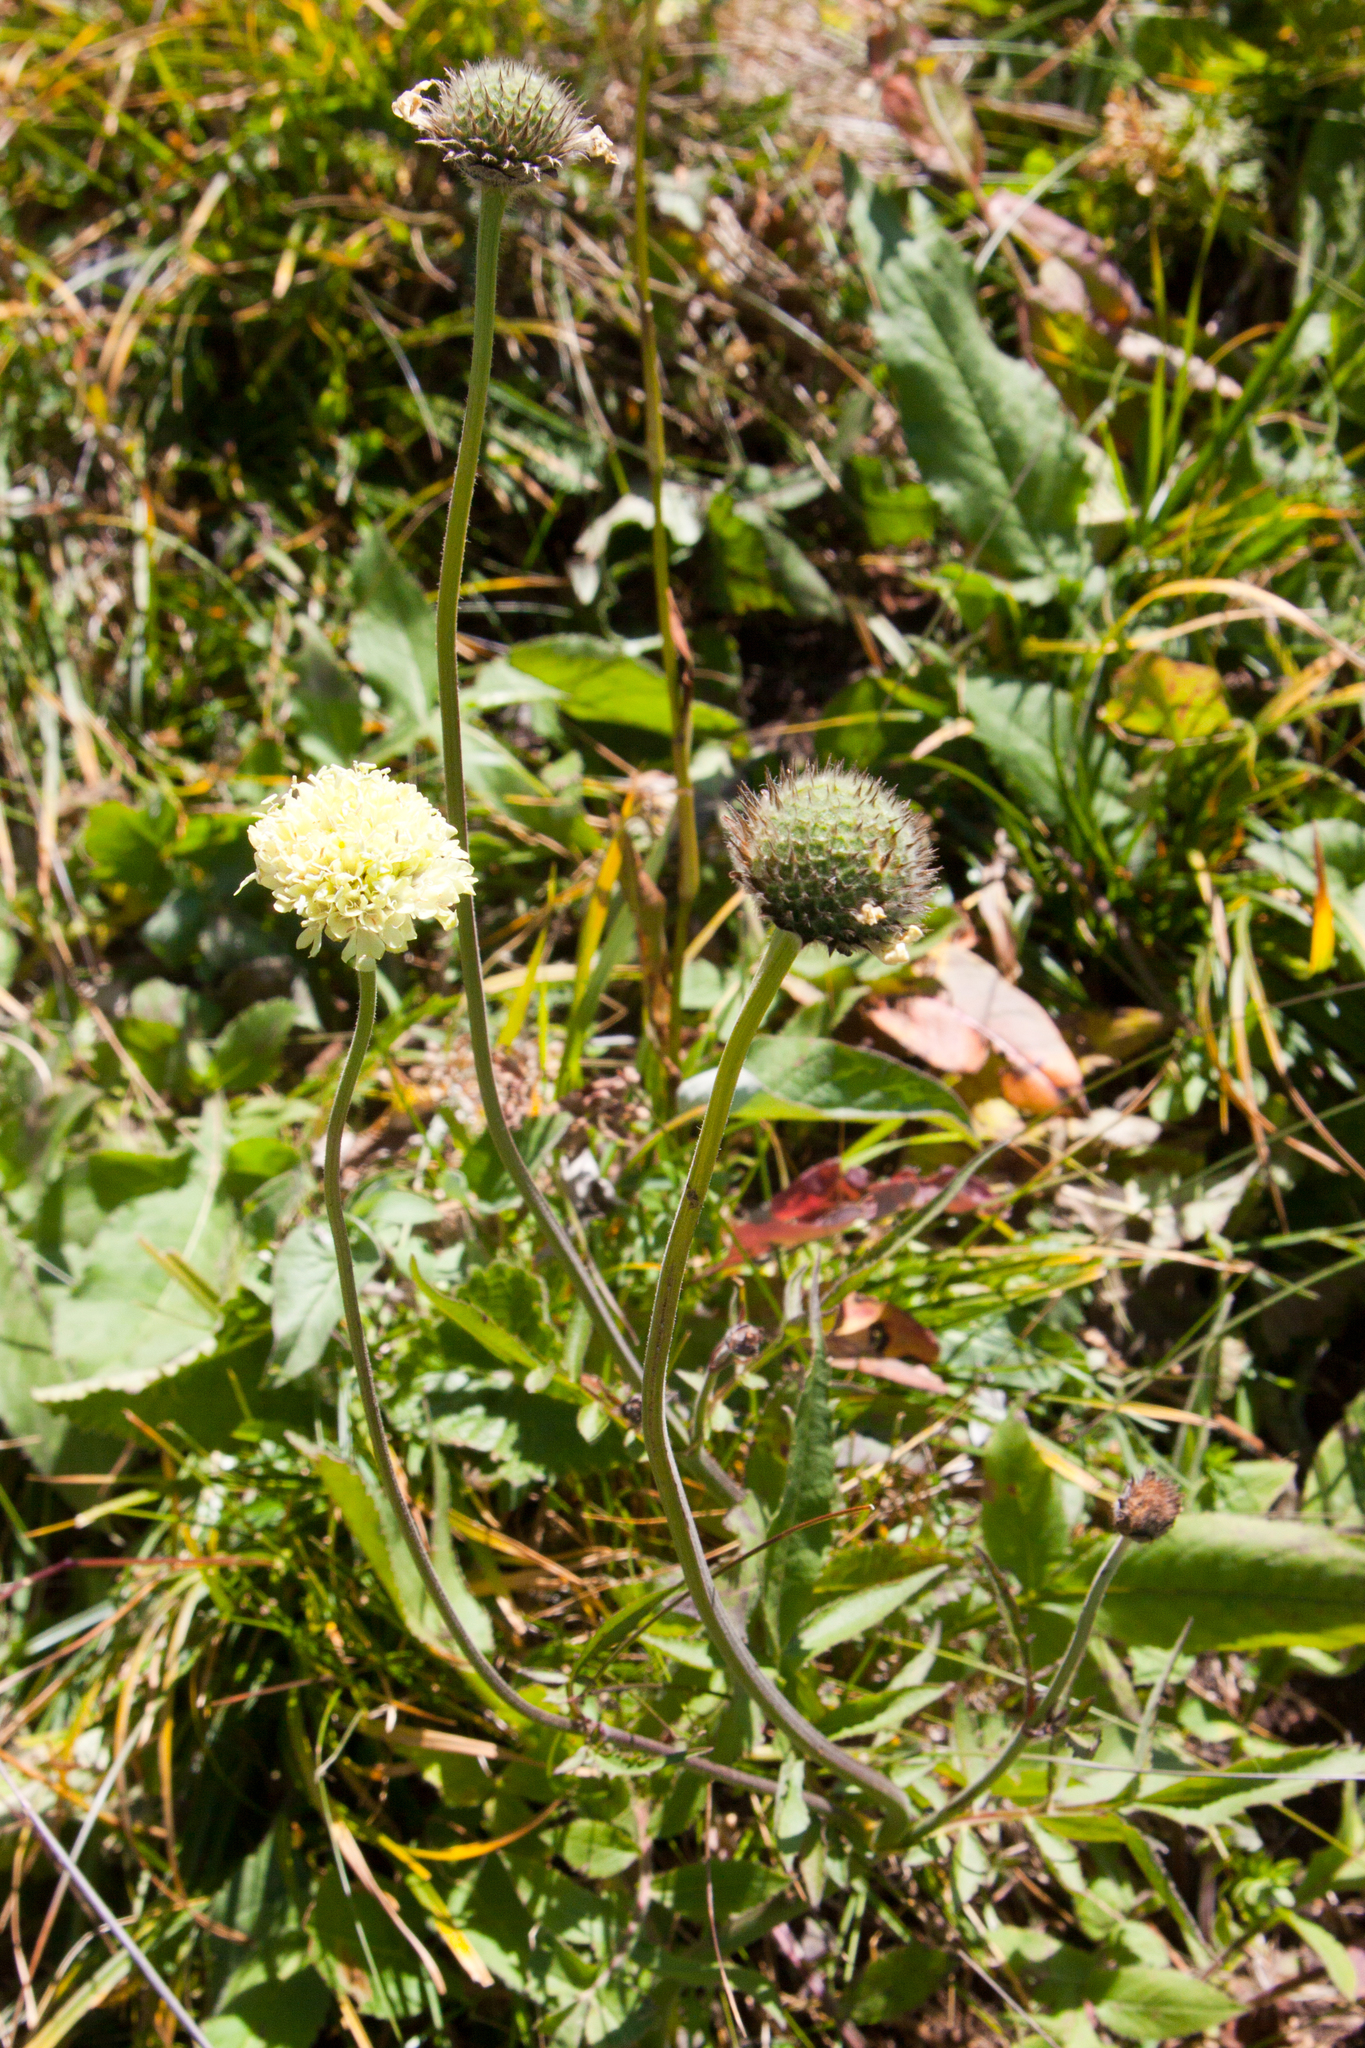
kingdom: Plantae
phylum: Tracheophyta
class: Magnoliopsida
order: Dipsacales
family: Caprifoliaceae
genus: Cephalaria
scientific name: Cephalaria gigantea
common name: Tatarian cephalaria
